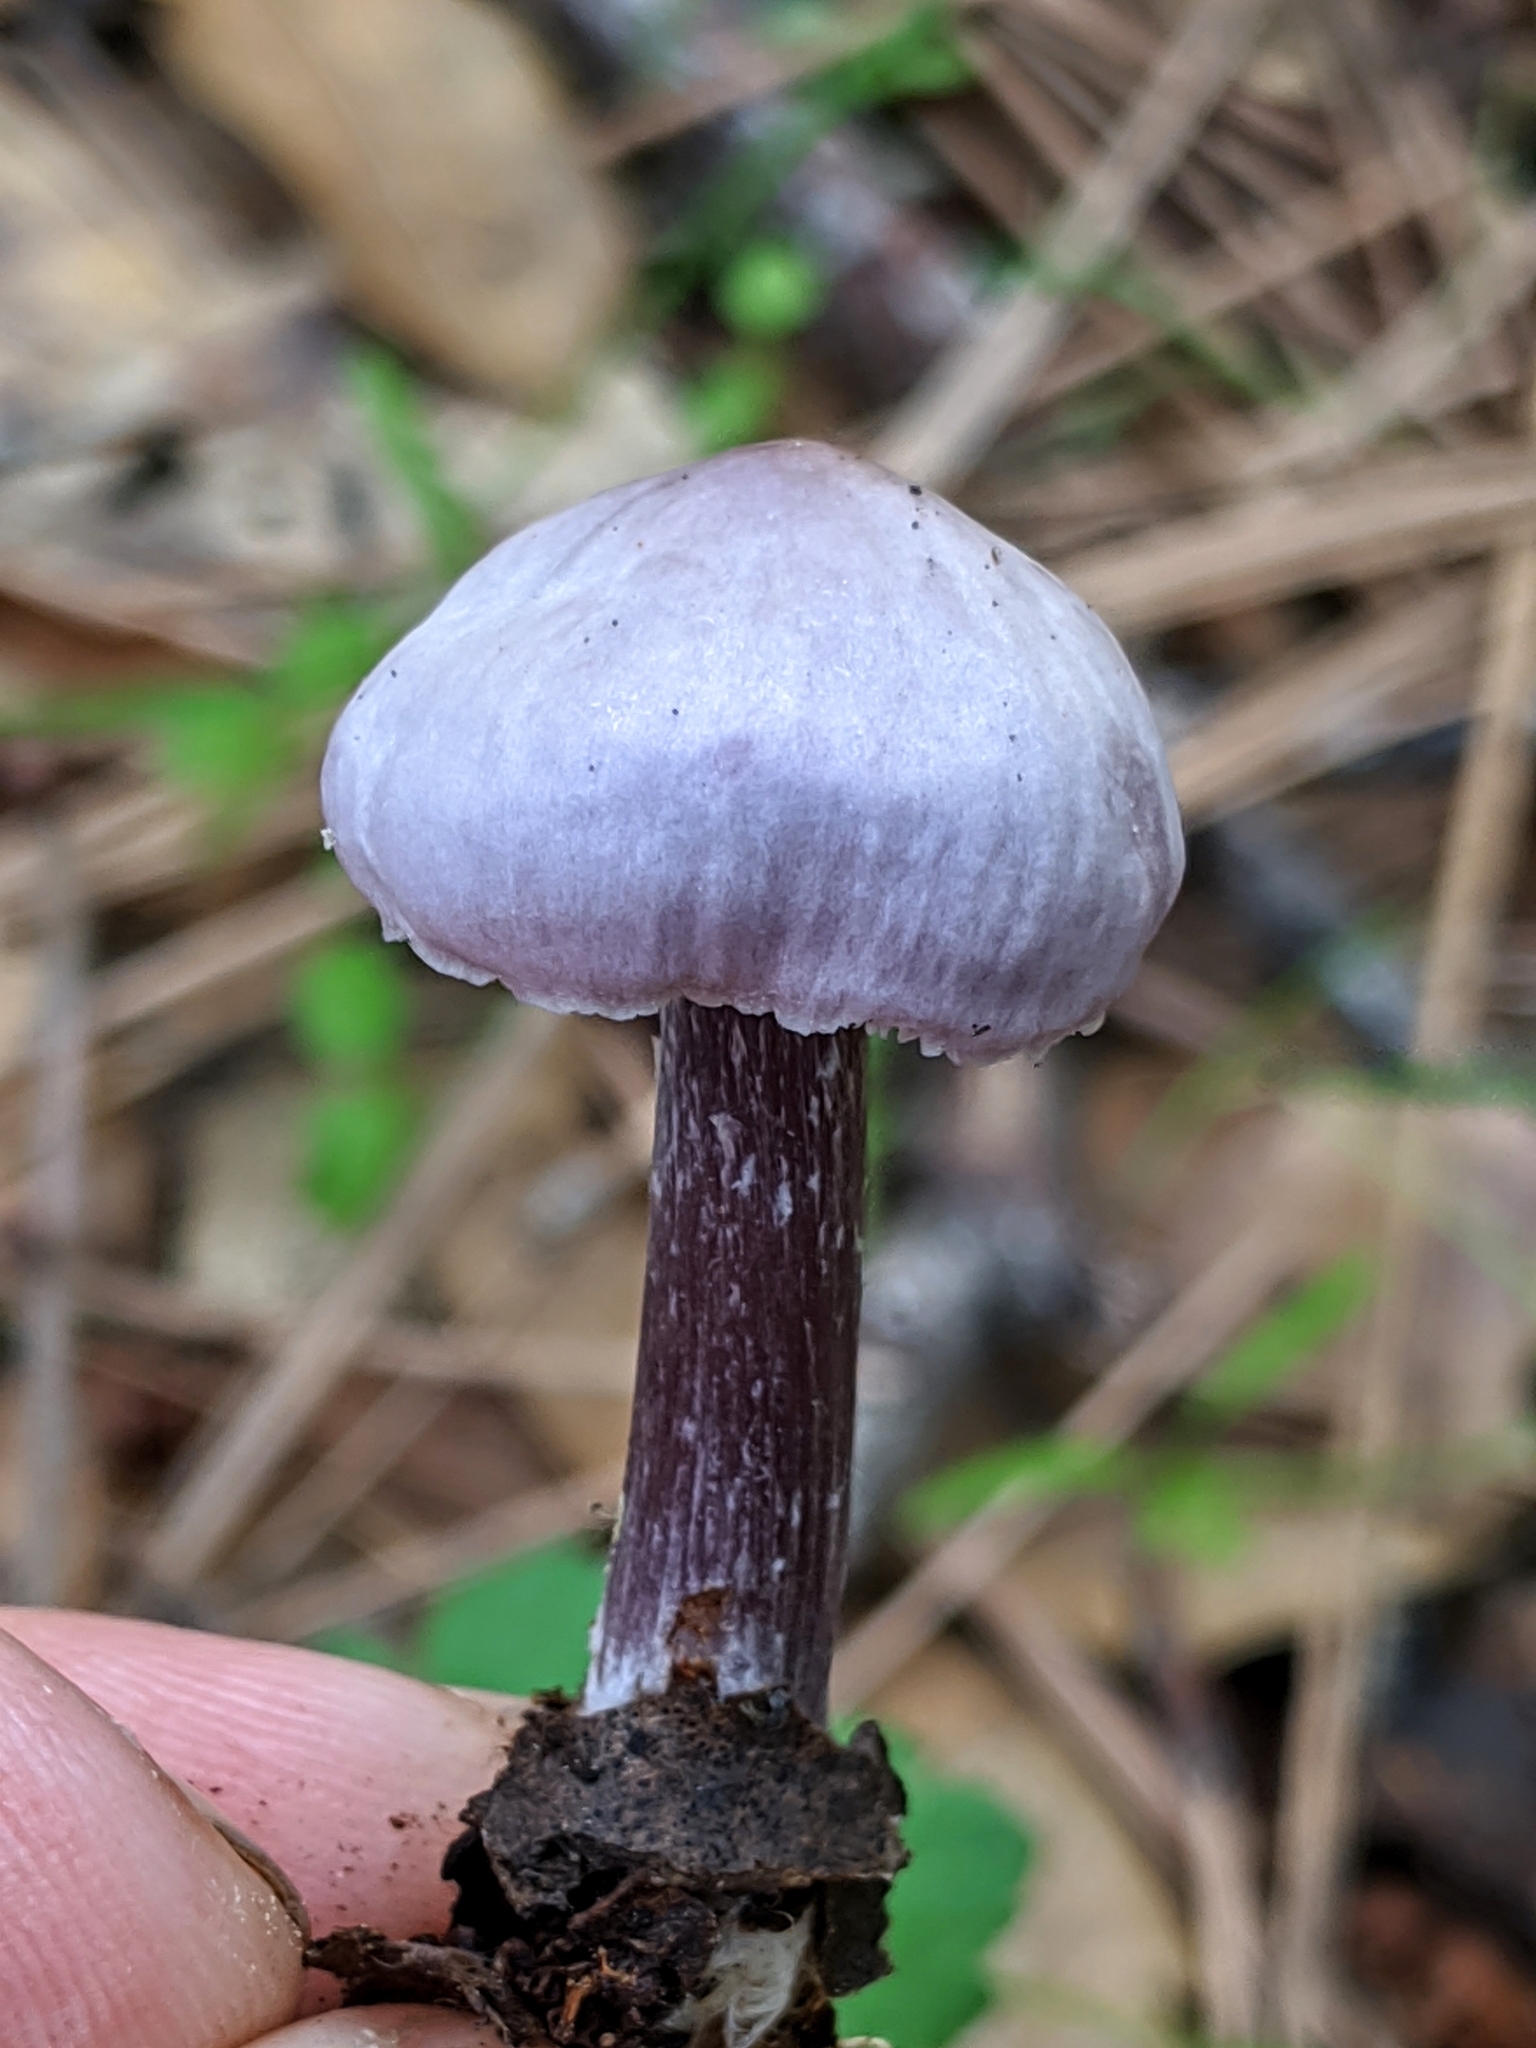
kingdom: Fungi
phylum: Basidiomycota
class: Agaricomycetes
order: Agaricales
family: Mycenaceae
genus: Mycena
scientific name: Mycena pura
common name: Lilac bonnet
